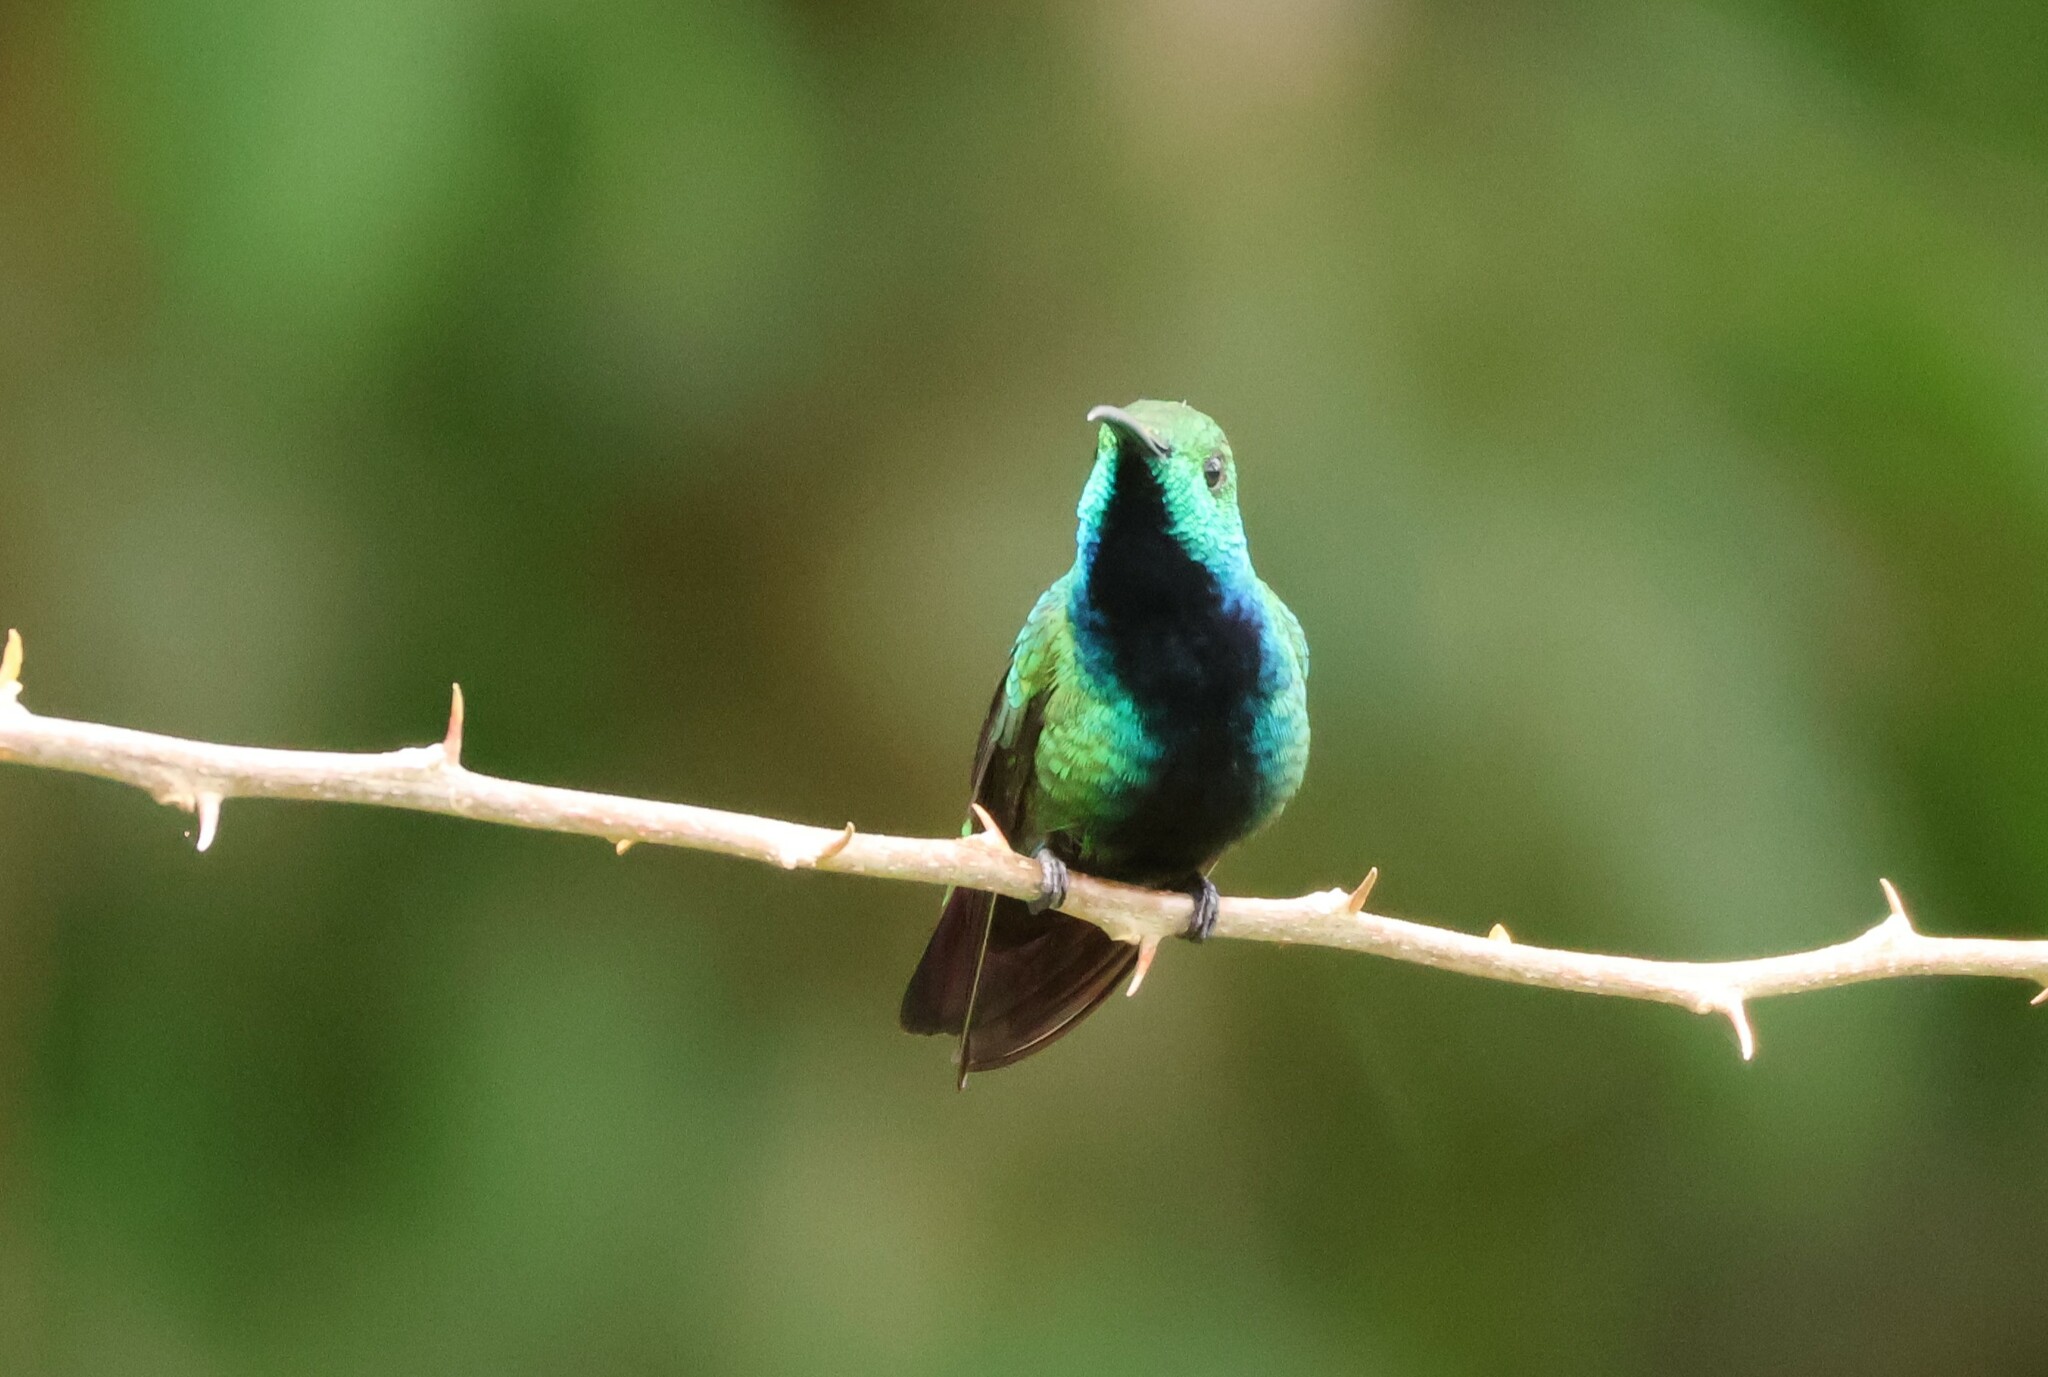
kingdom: Animalia
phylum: Chordata
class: Aves
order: Apodiformes
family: Trochilidae
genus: Anthracothorax
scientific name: Anthracothorax prevostii
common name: Green-breasted mango
